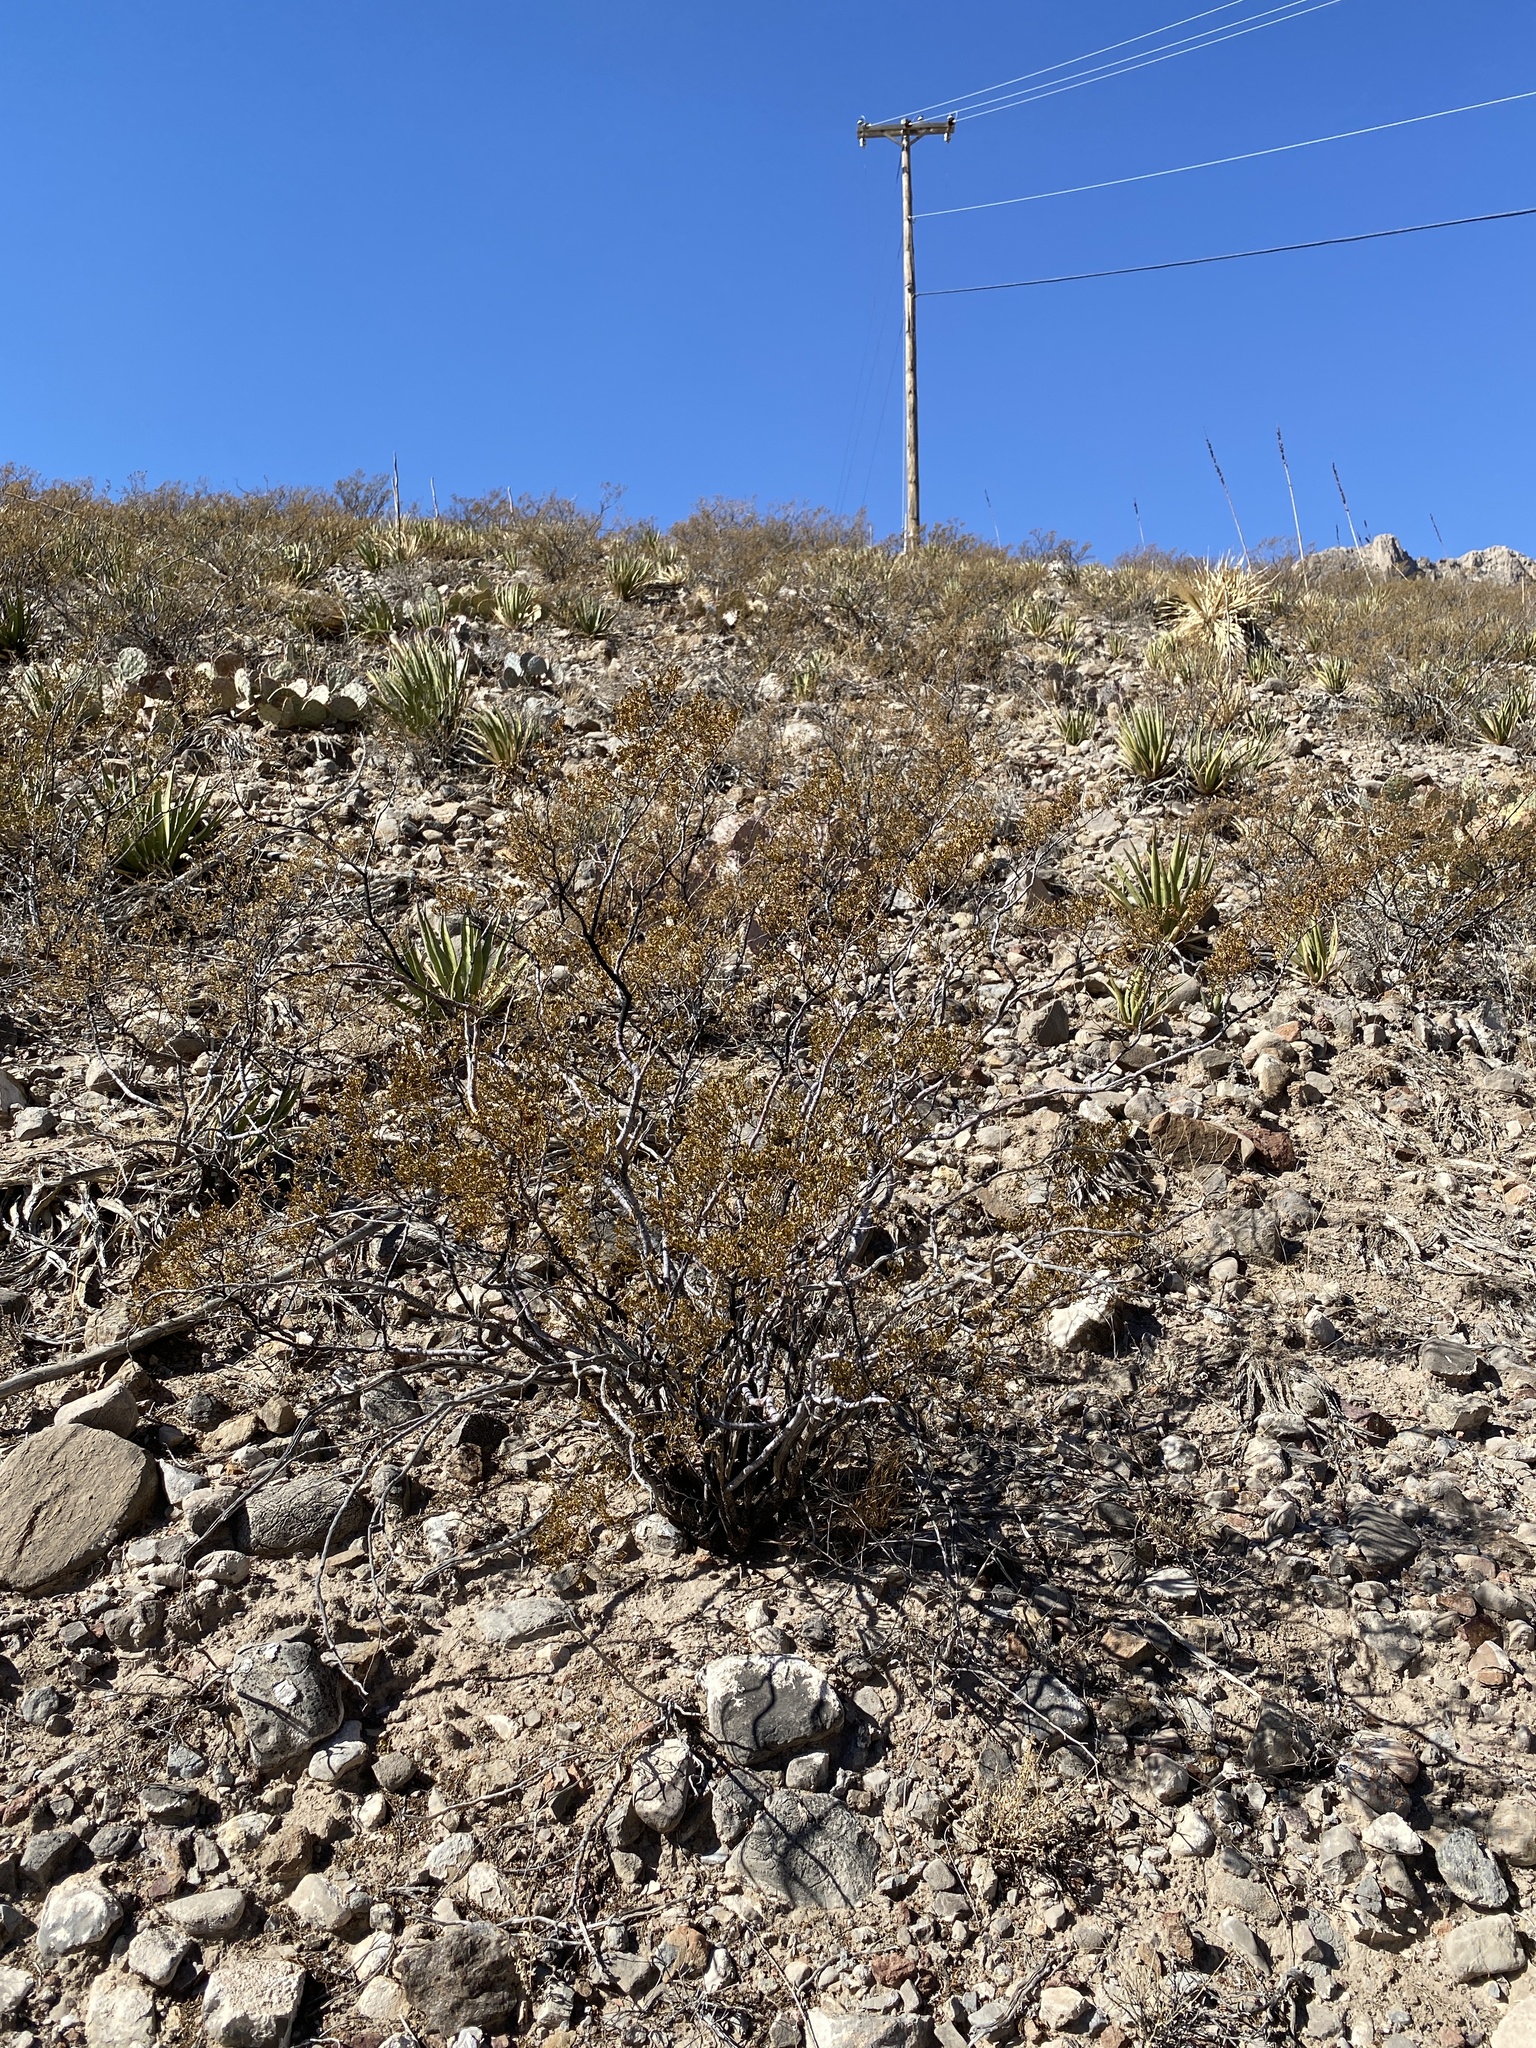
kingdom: Plantae
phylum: Tracheophyta
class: Magnoliopsida
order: Zygophyllales
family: Zygophyllaceae
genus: Larrea
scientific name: Larrea tridentata
